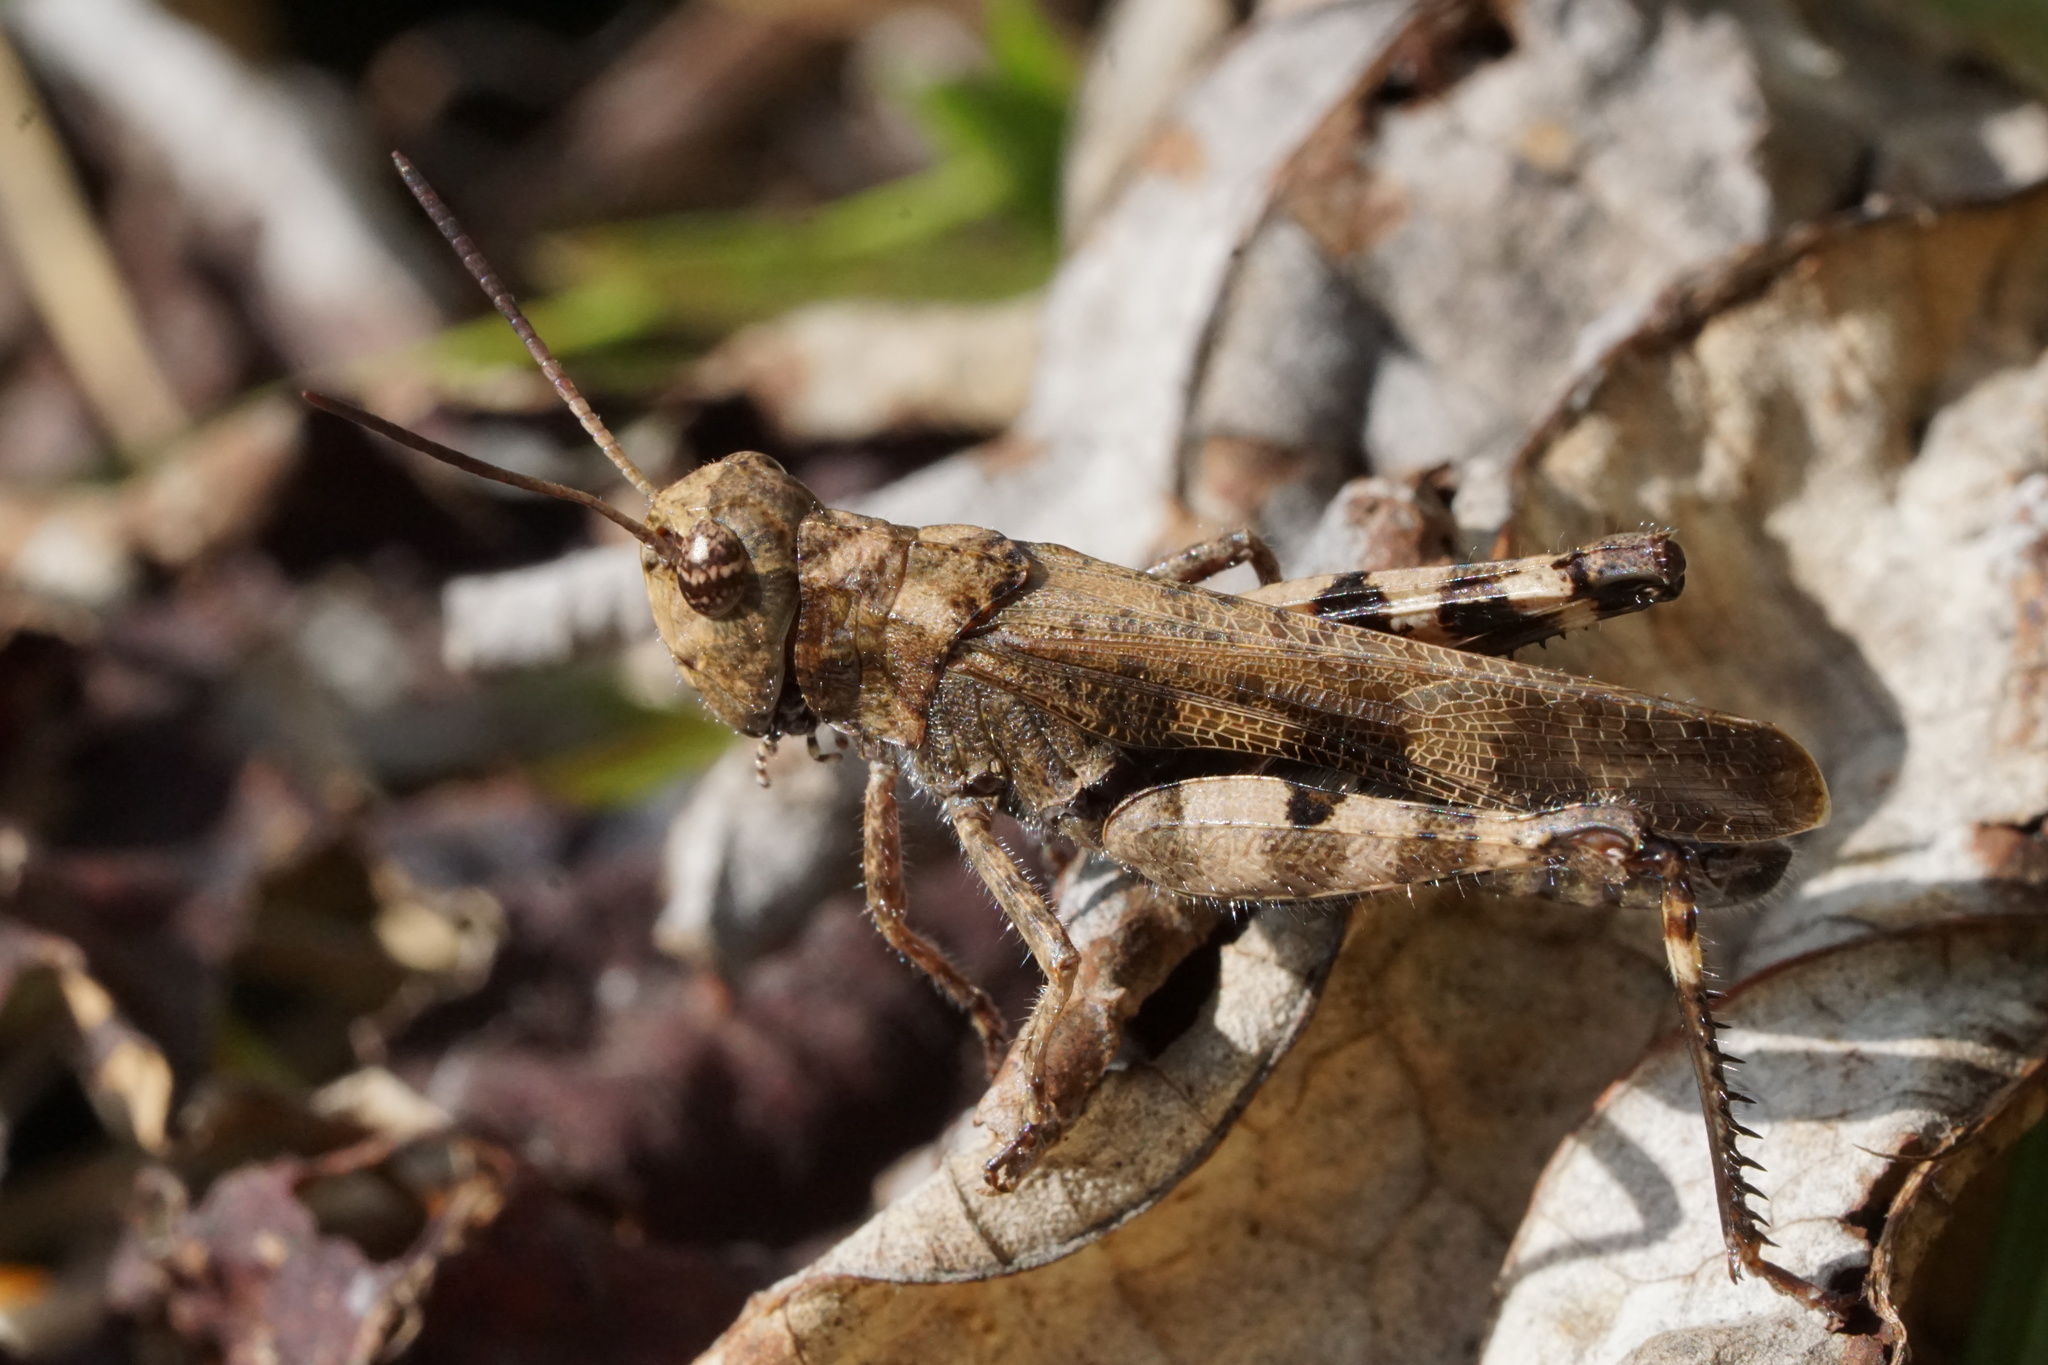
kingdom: Animalia
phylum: Arthropoda
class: Insecta
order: Orthoptera
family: Acrididae
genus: Encoptolophus
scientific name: Encoptolophus sordidus
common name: Dusky grasshopper
